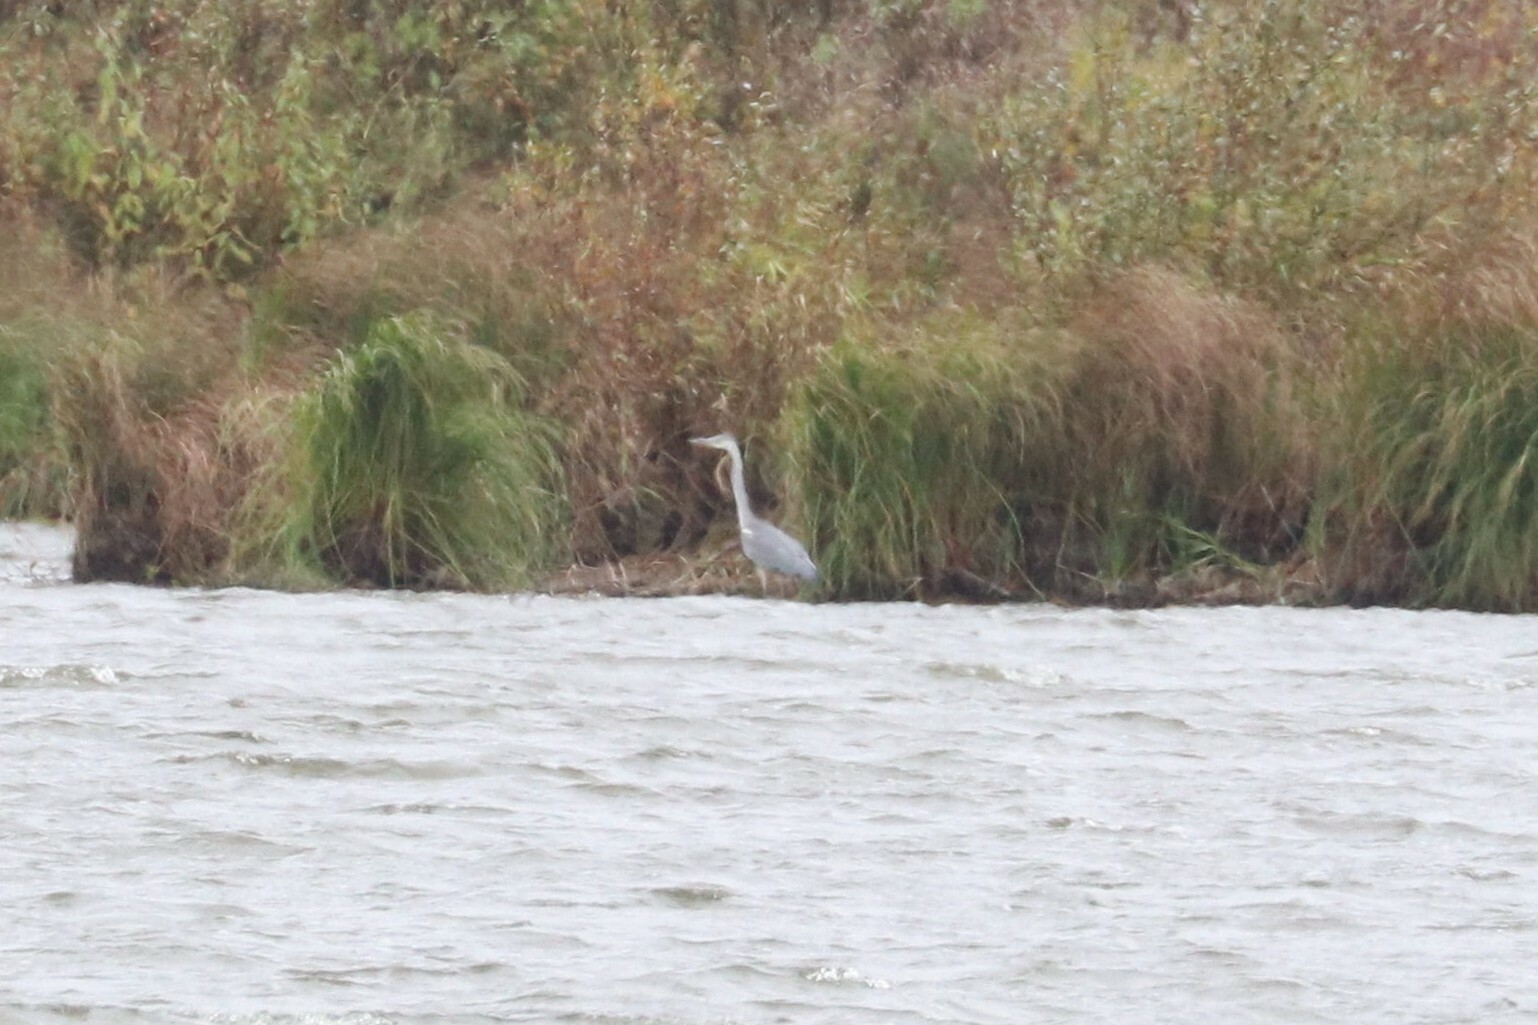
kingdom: Animalia
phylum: Chordata
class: Aves
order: Pelecaniformes
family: Ardeidae
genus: Ardea
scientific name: Ardea cinerea
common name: Grey heron
